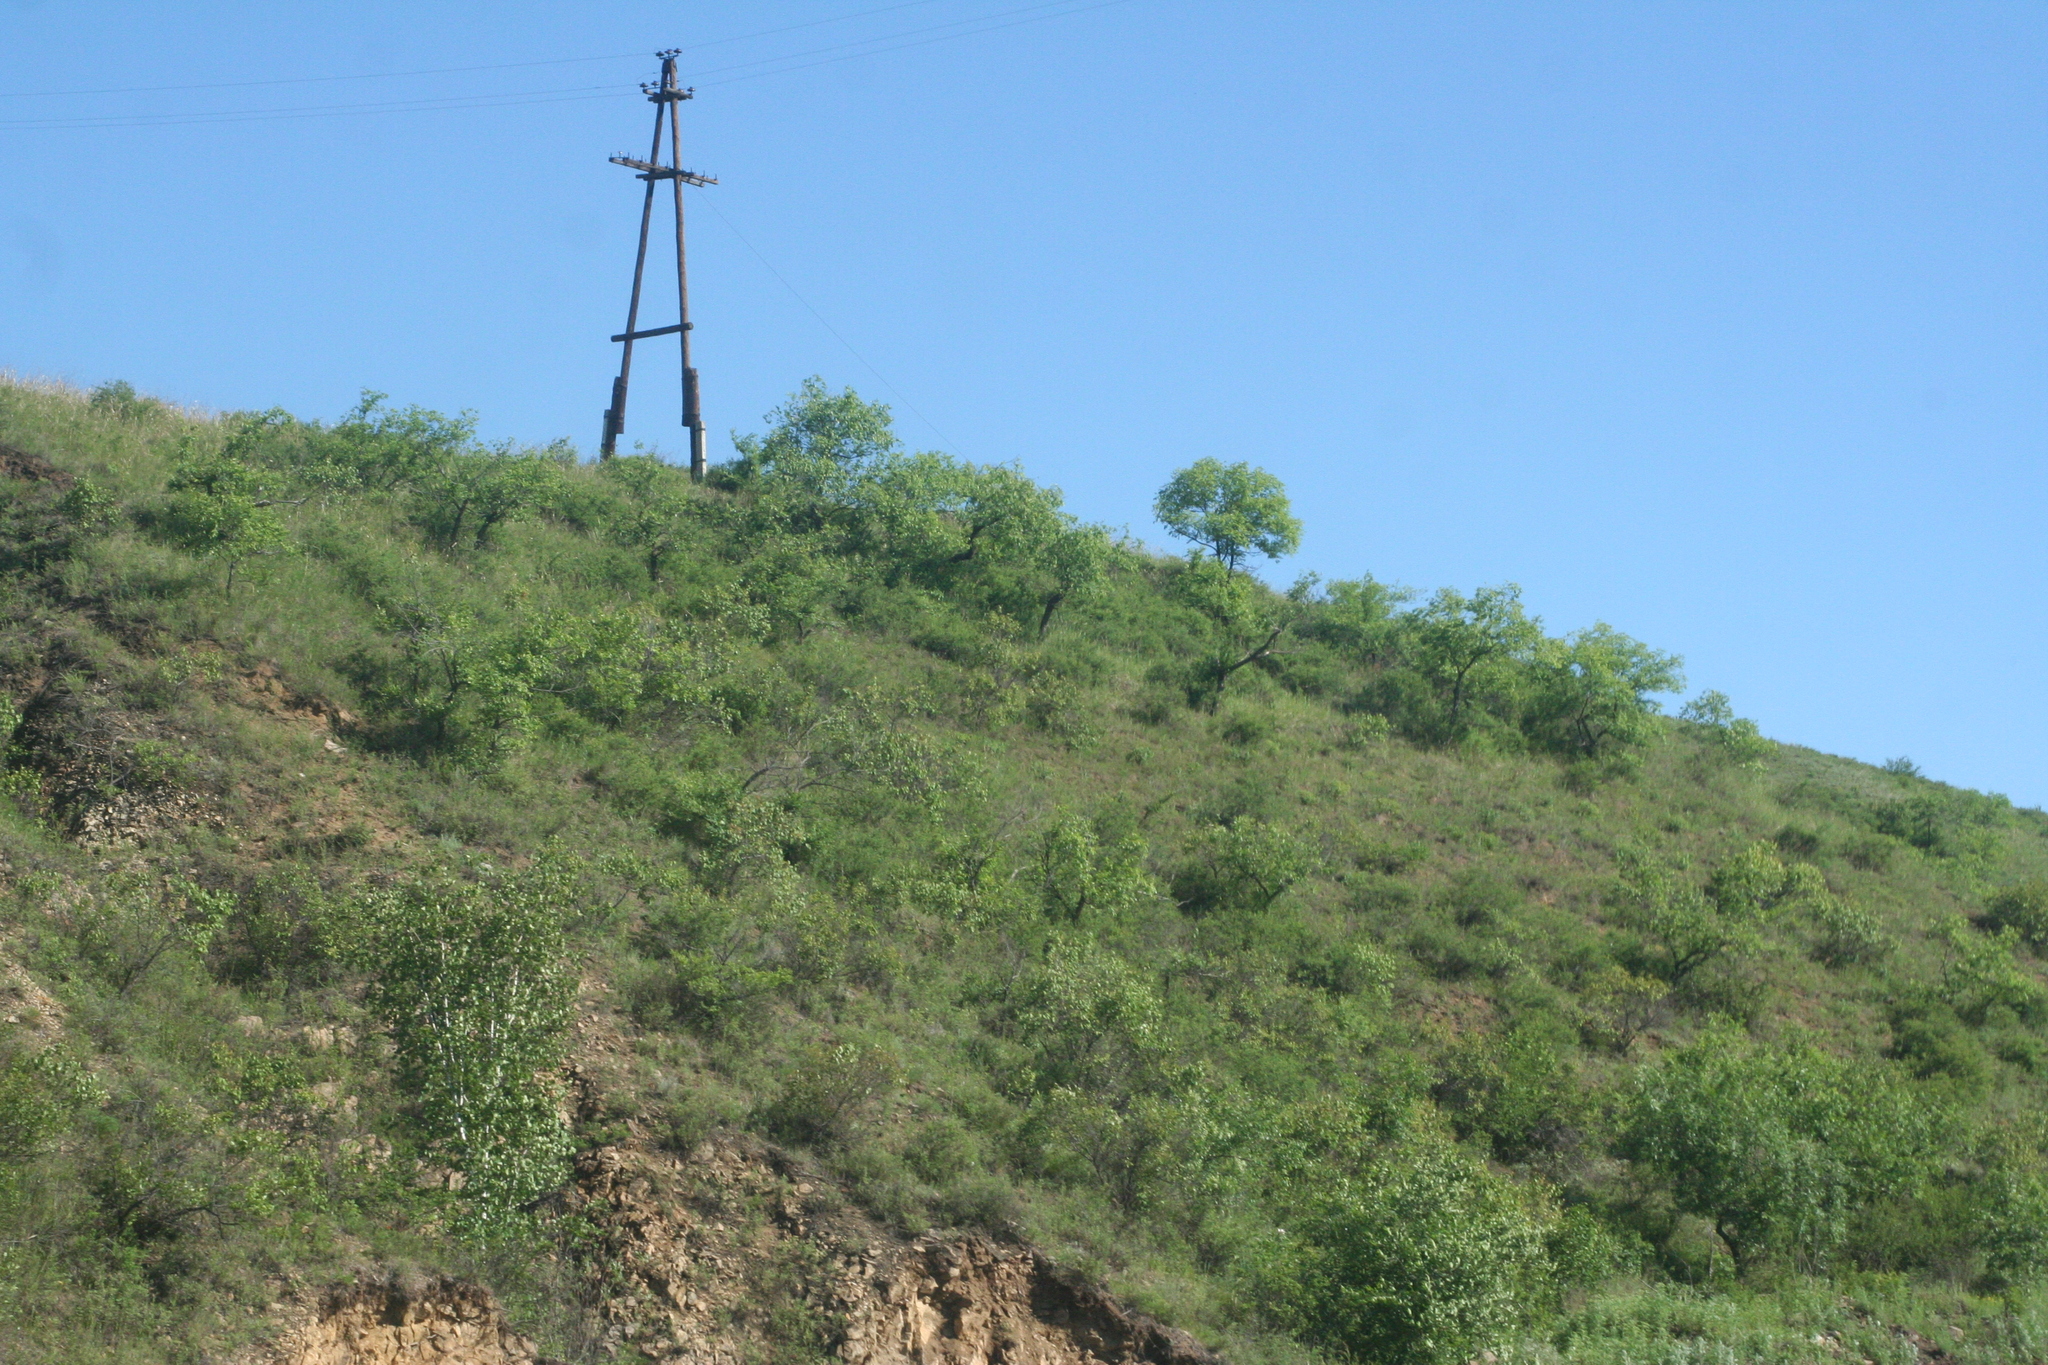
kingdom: Plantae
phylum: Tracheophyta
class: Magnoliopsida
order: Rosales
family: Ulmaceae
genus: Ulmus
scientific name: Ulmus pumila
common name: Siberian elm
